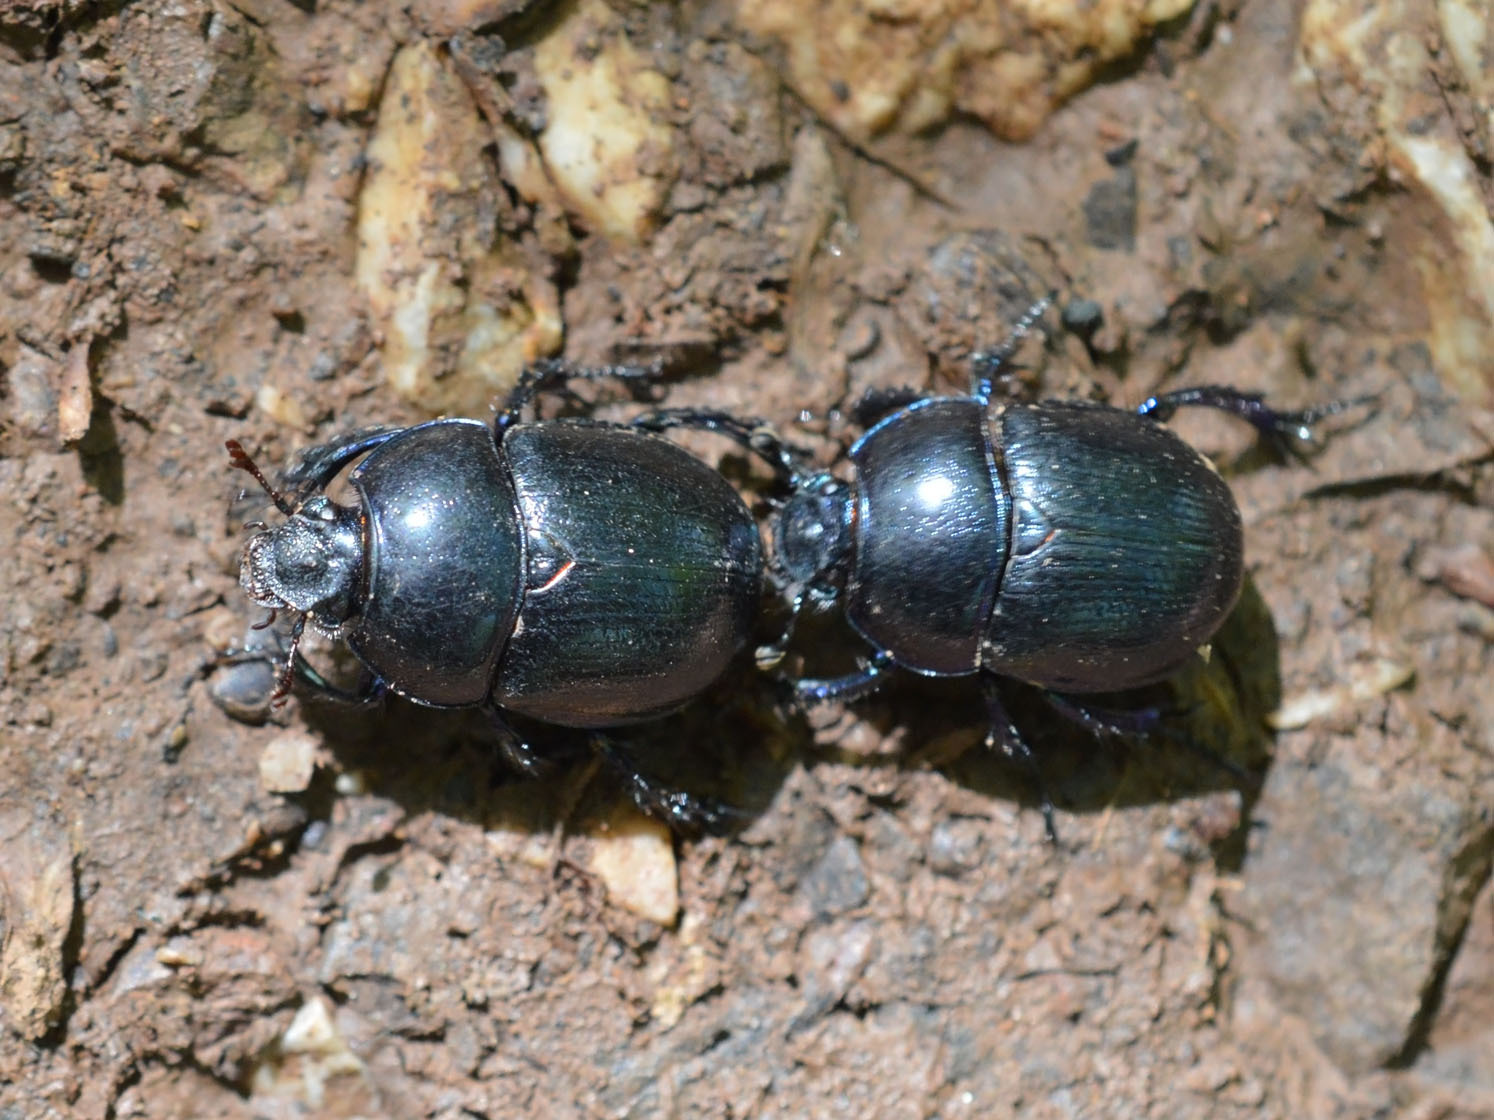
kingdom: Animalia
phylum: Arthropoda
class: Insecta
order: Coleoptera
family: Geotrupidae
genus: Anoplotrupes
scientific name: Anoplotrupes stercorosus
